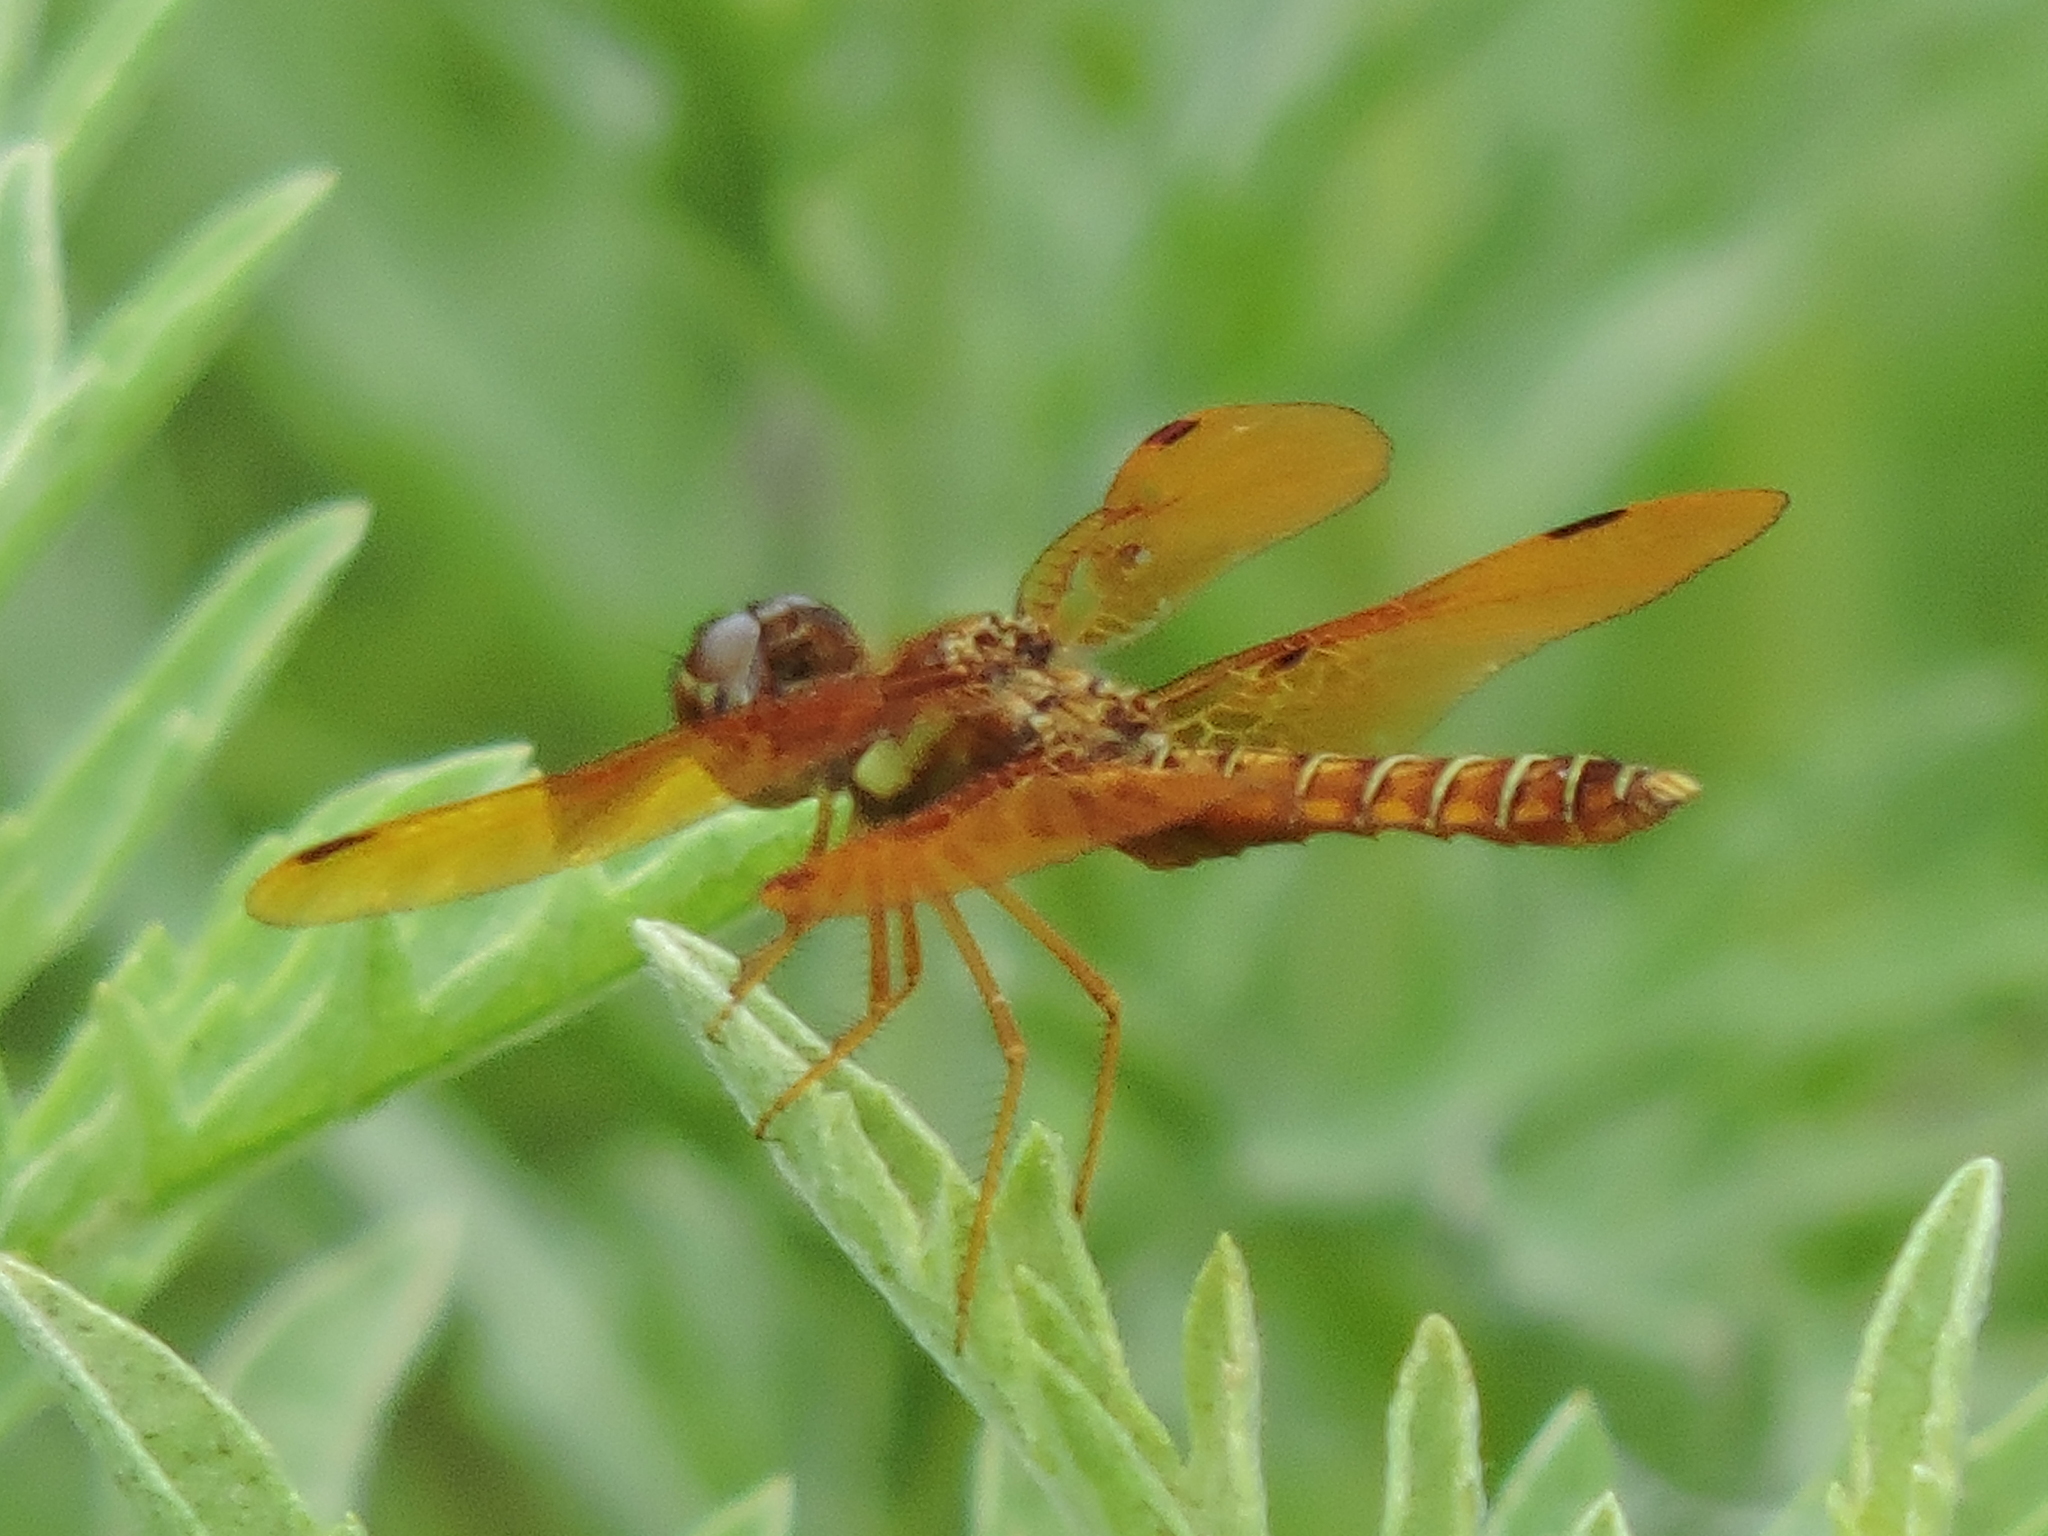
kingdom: Animalia
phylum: Arthropoda
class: Insecta
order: Odonata
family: Libellulidae
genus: Perithemis
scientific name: Perithemis tenera
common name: Eastern amberwing
